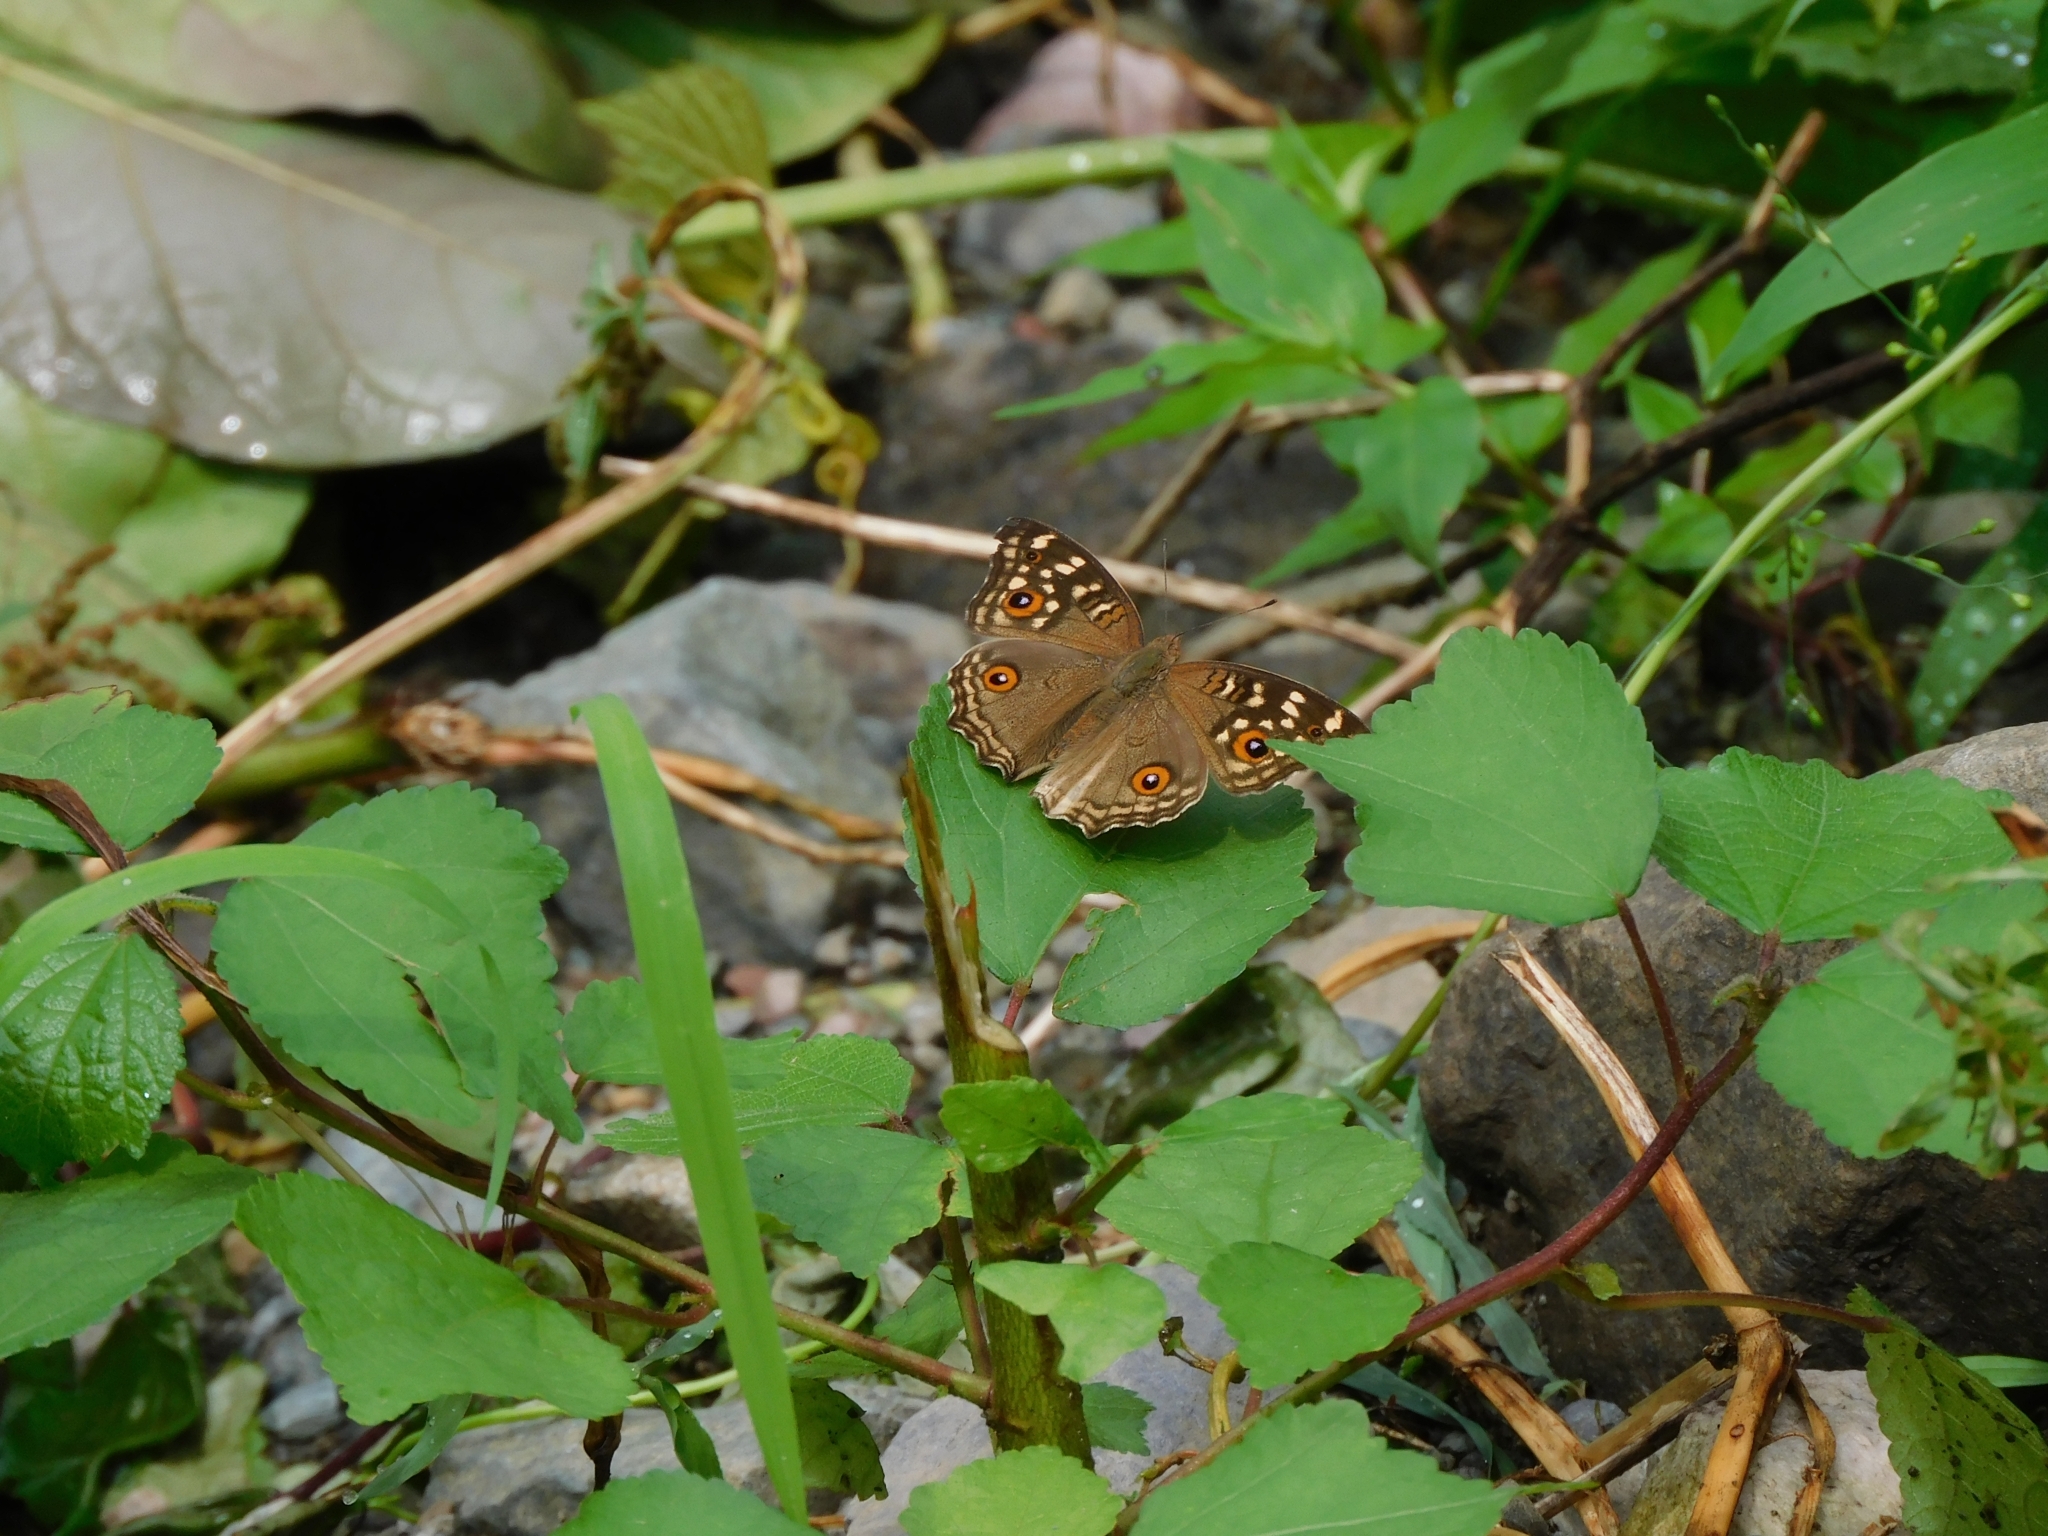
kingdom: Animalia
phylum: Arthropoda
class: Insecta
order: Lepidoptera
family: Nymphalidae
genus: Junonia
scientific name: Junonia lemonias
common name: Lemon pansy
